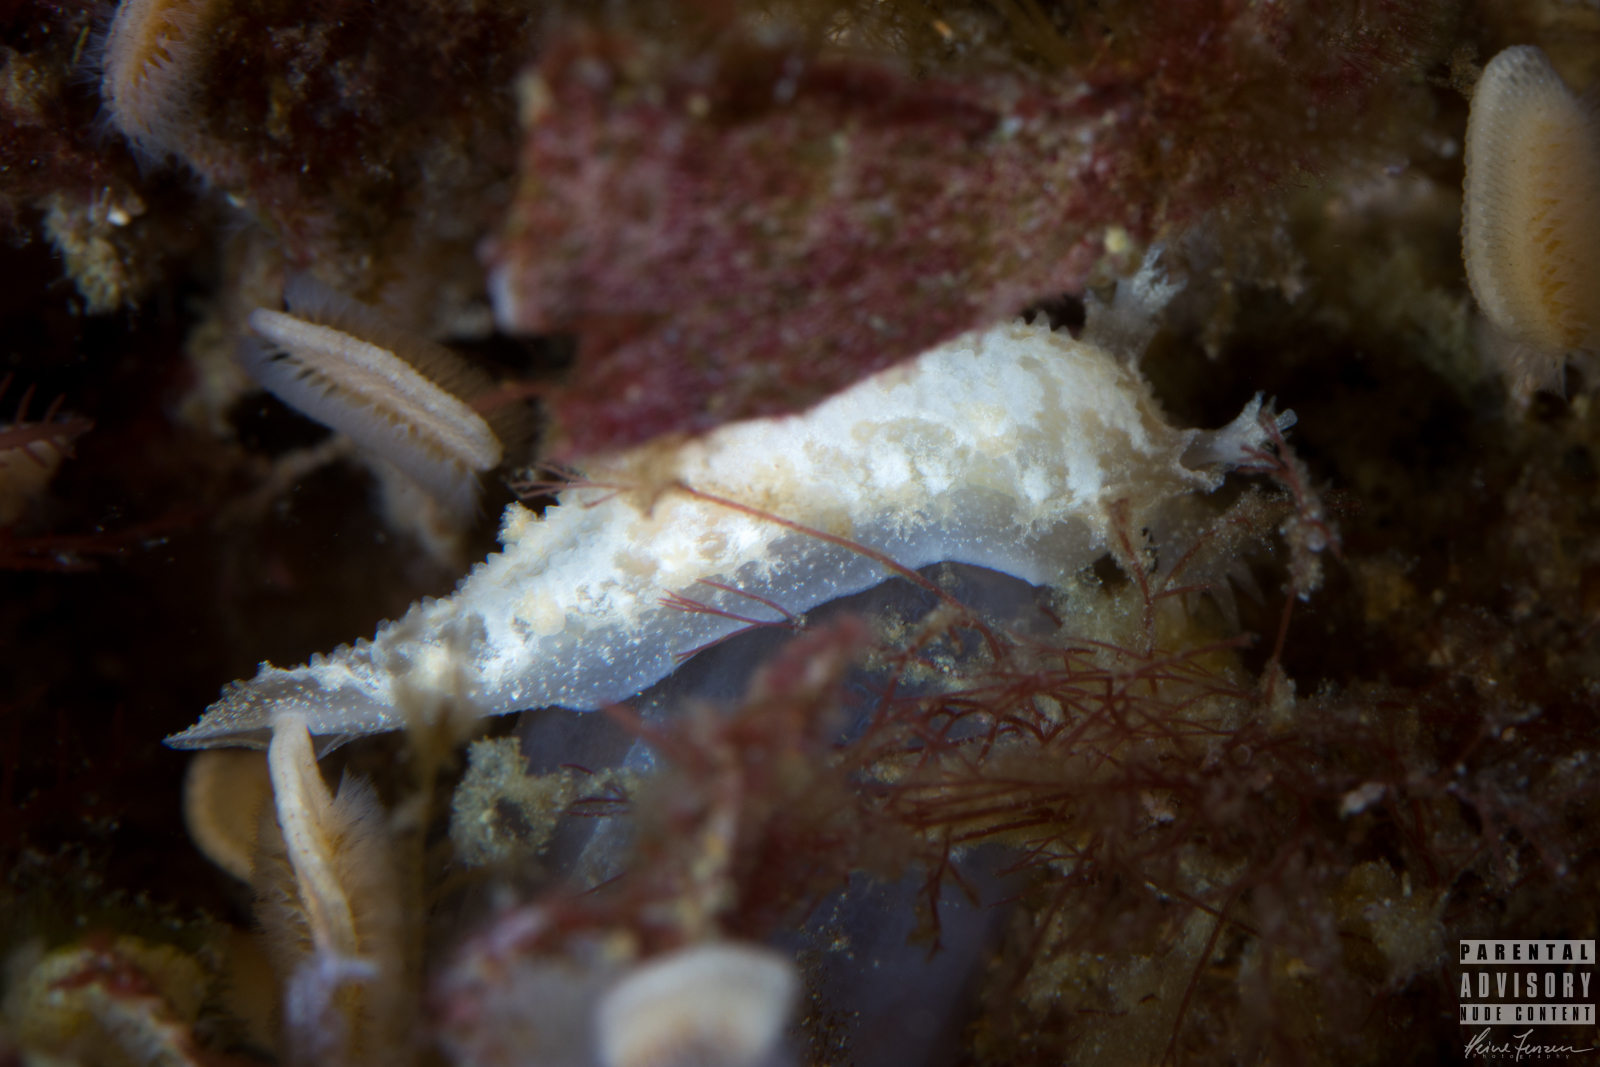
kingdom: Animalia
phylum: Mollusca
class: Gastropoda
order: Nudibranchia
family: Tritoniidae
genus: Duvaucelia
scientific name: Duvaucelia plebeia
